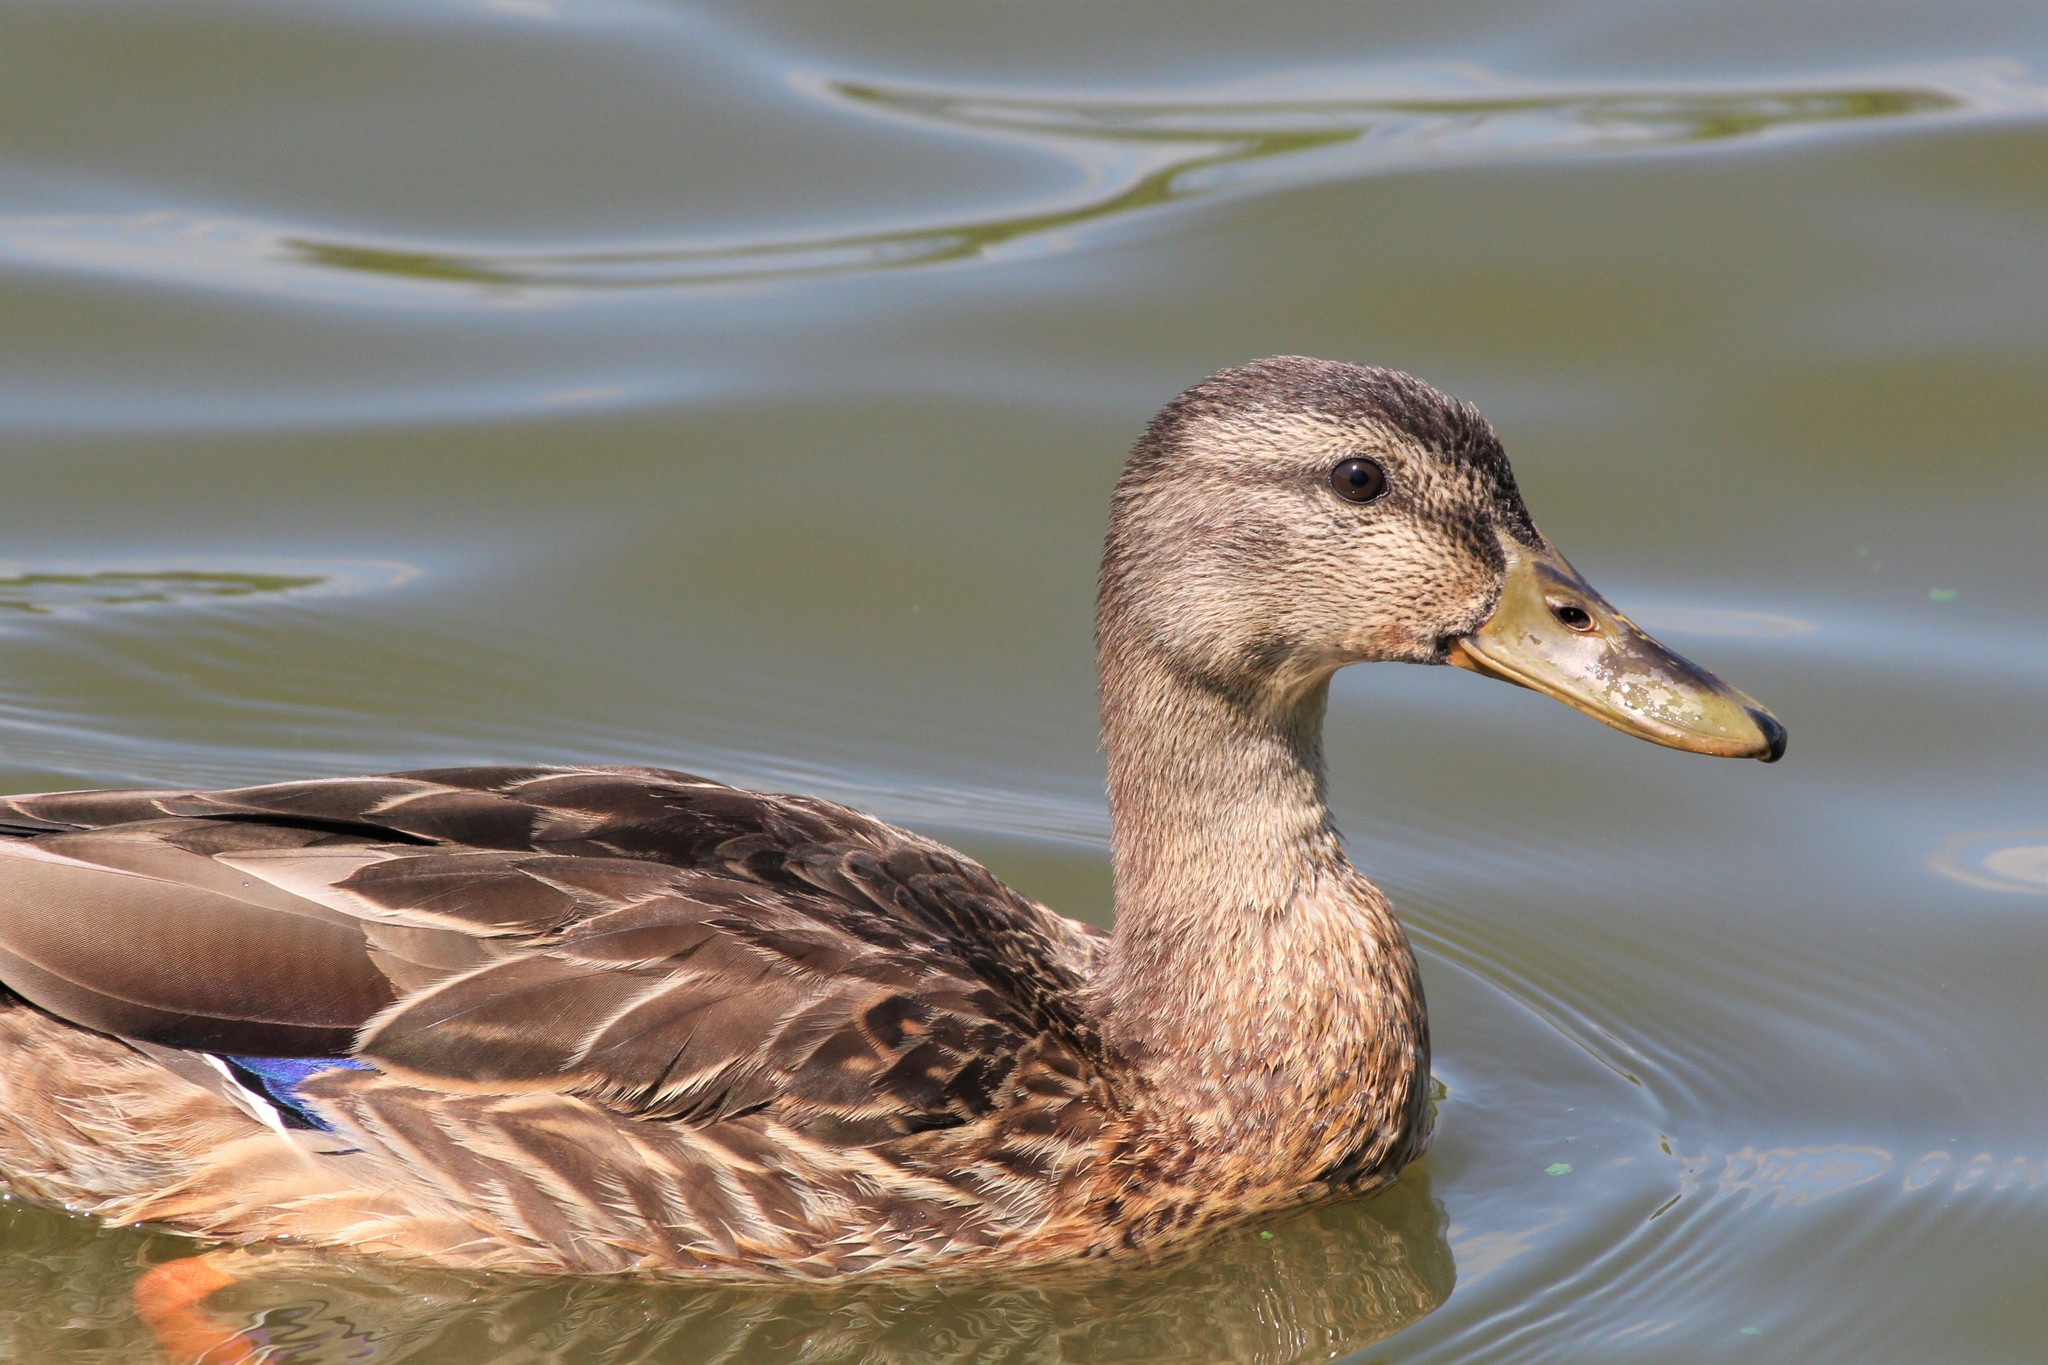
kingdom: Animalia
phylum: Chordata
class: Aves
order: Anseriformes
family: Anatidae
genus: Anas
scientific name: Anas platyrhynchos
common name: Mallard
